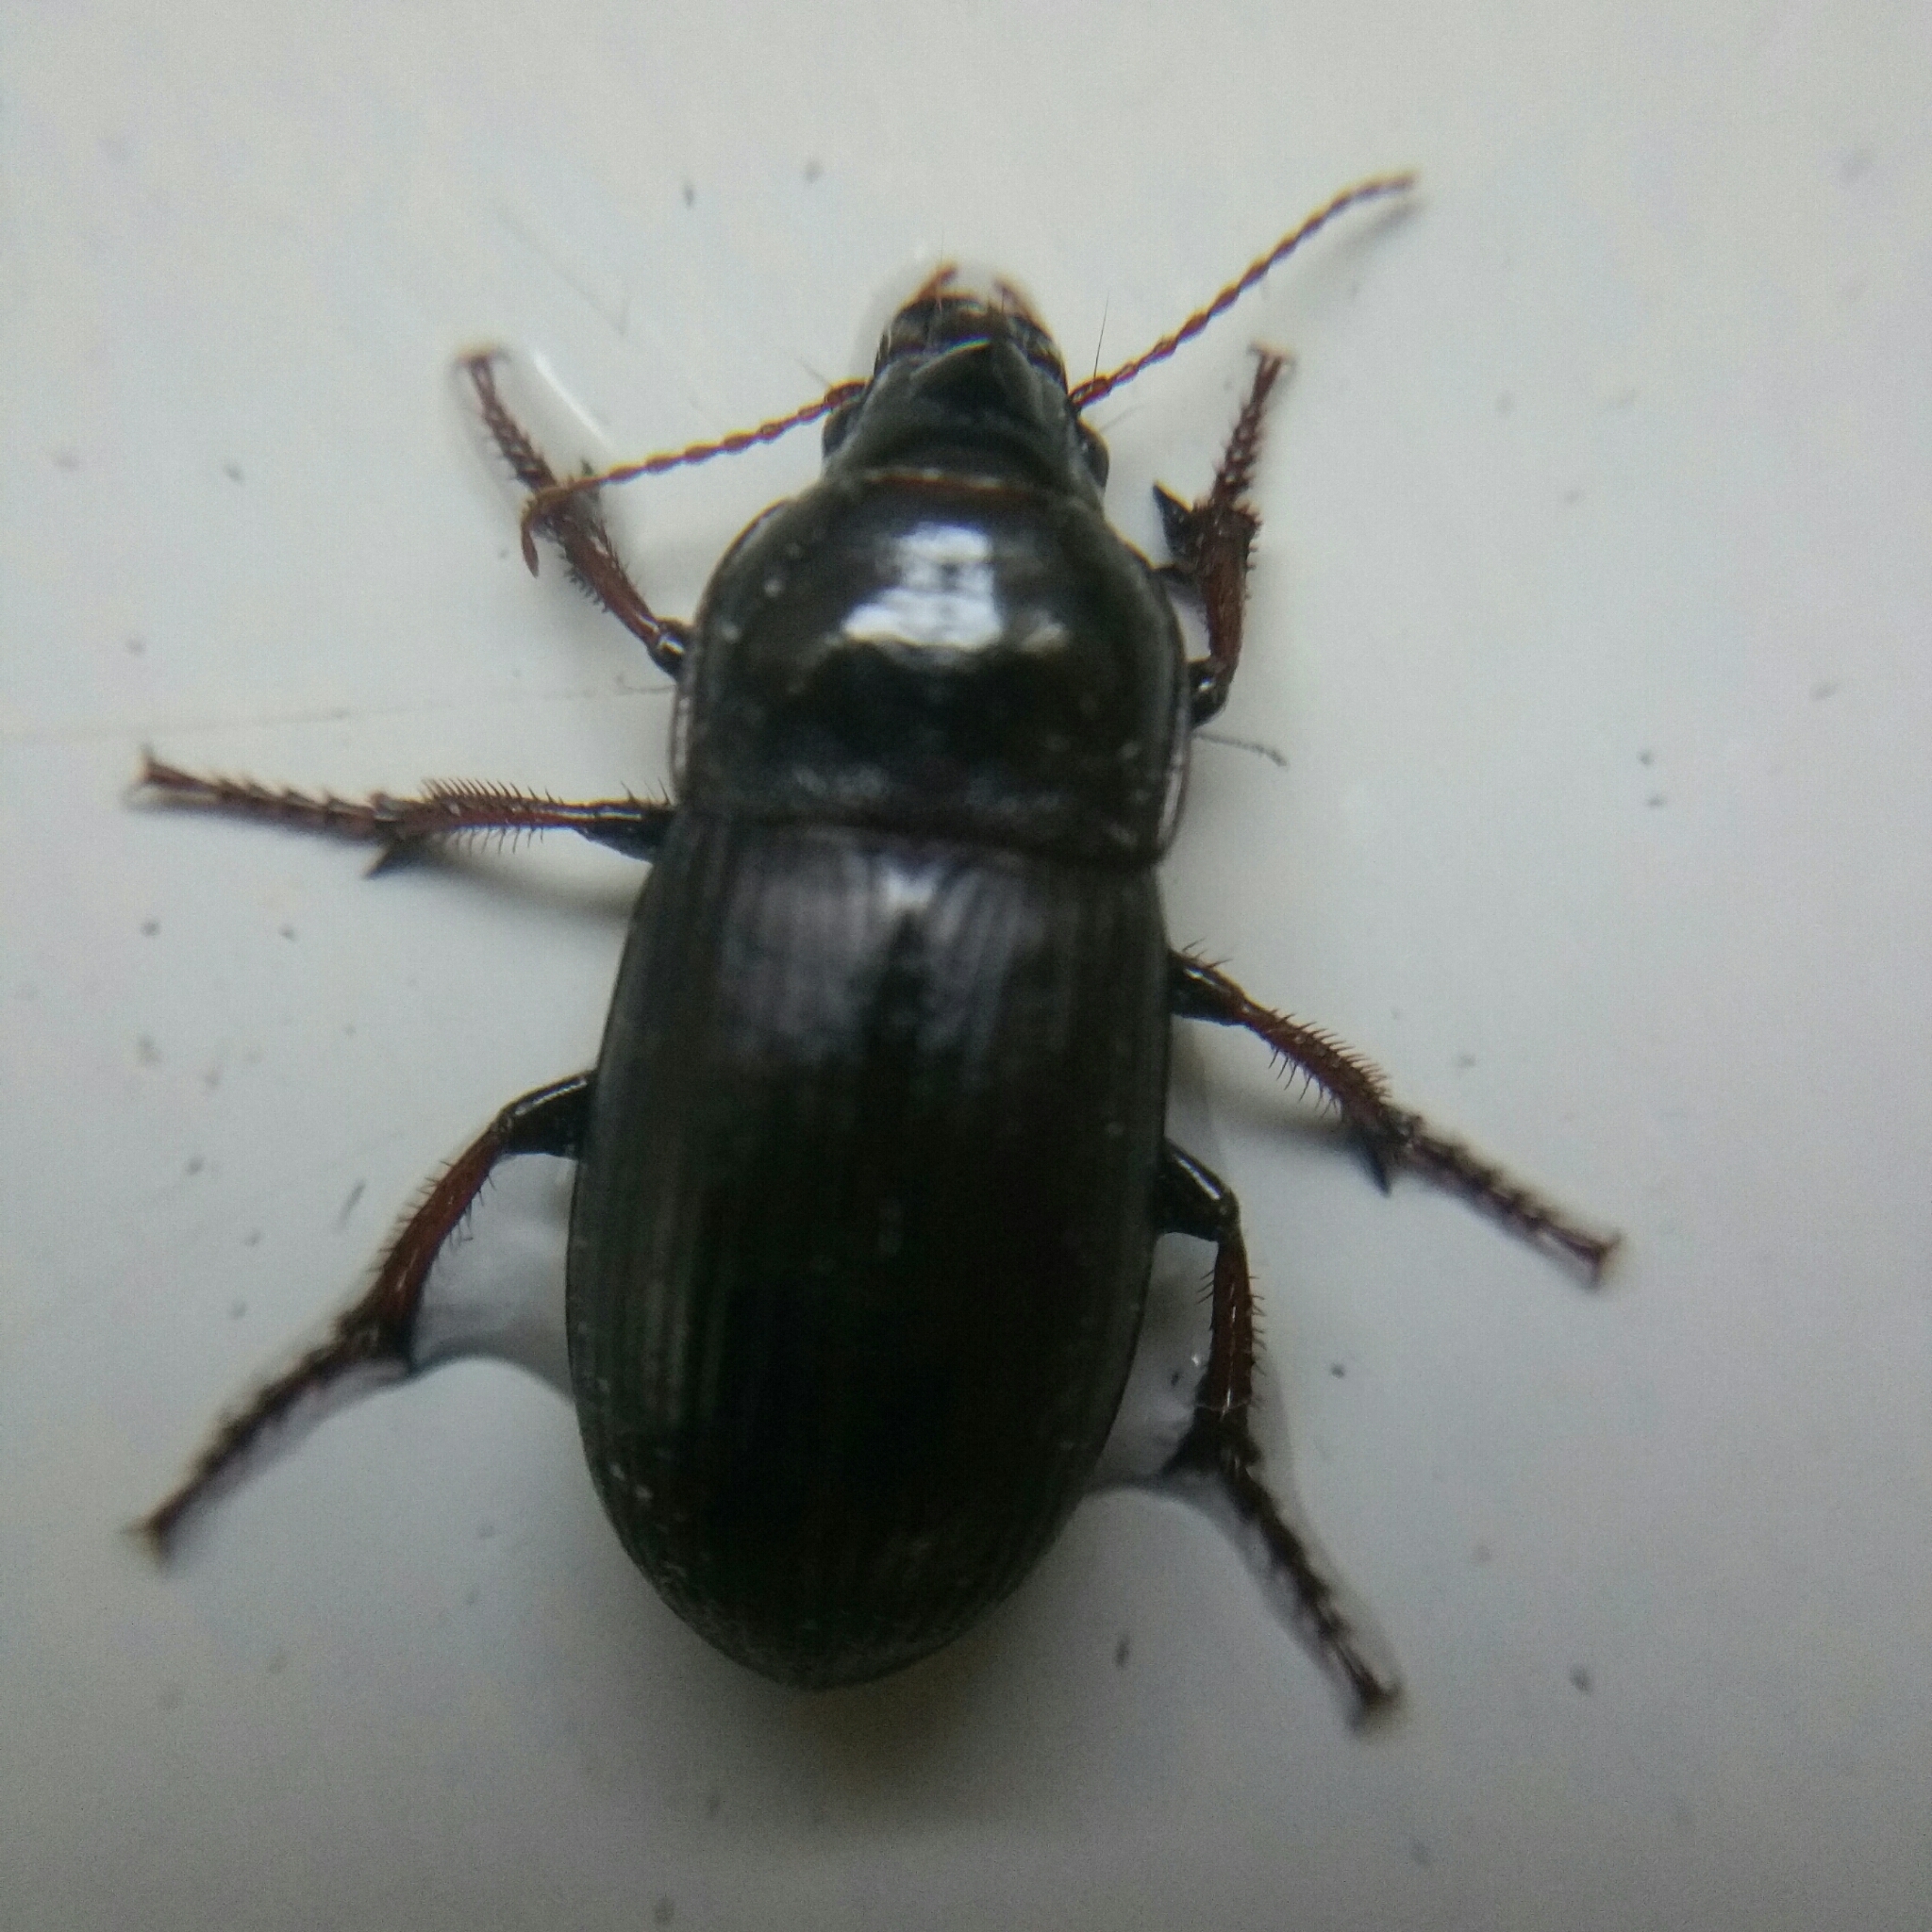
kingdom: Animalia
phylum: Arthropoda
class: Insecta
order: Coleoptera
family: Carabidae
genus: Zabrus
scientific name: Zabrus tenebrioides
